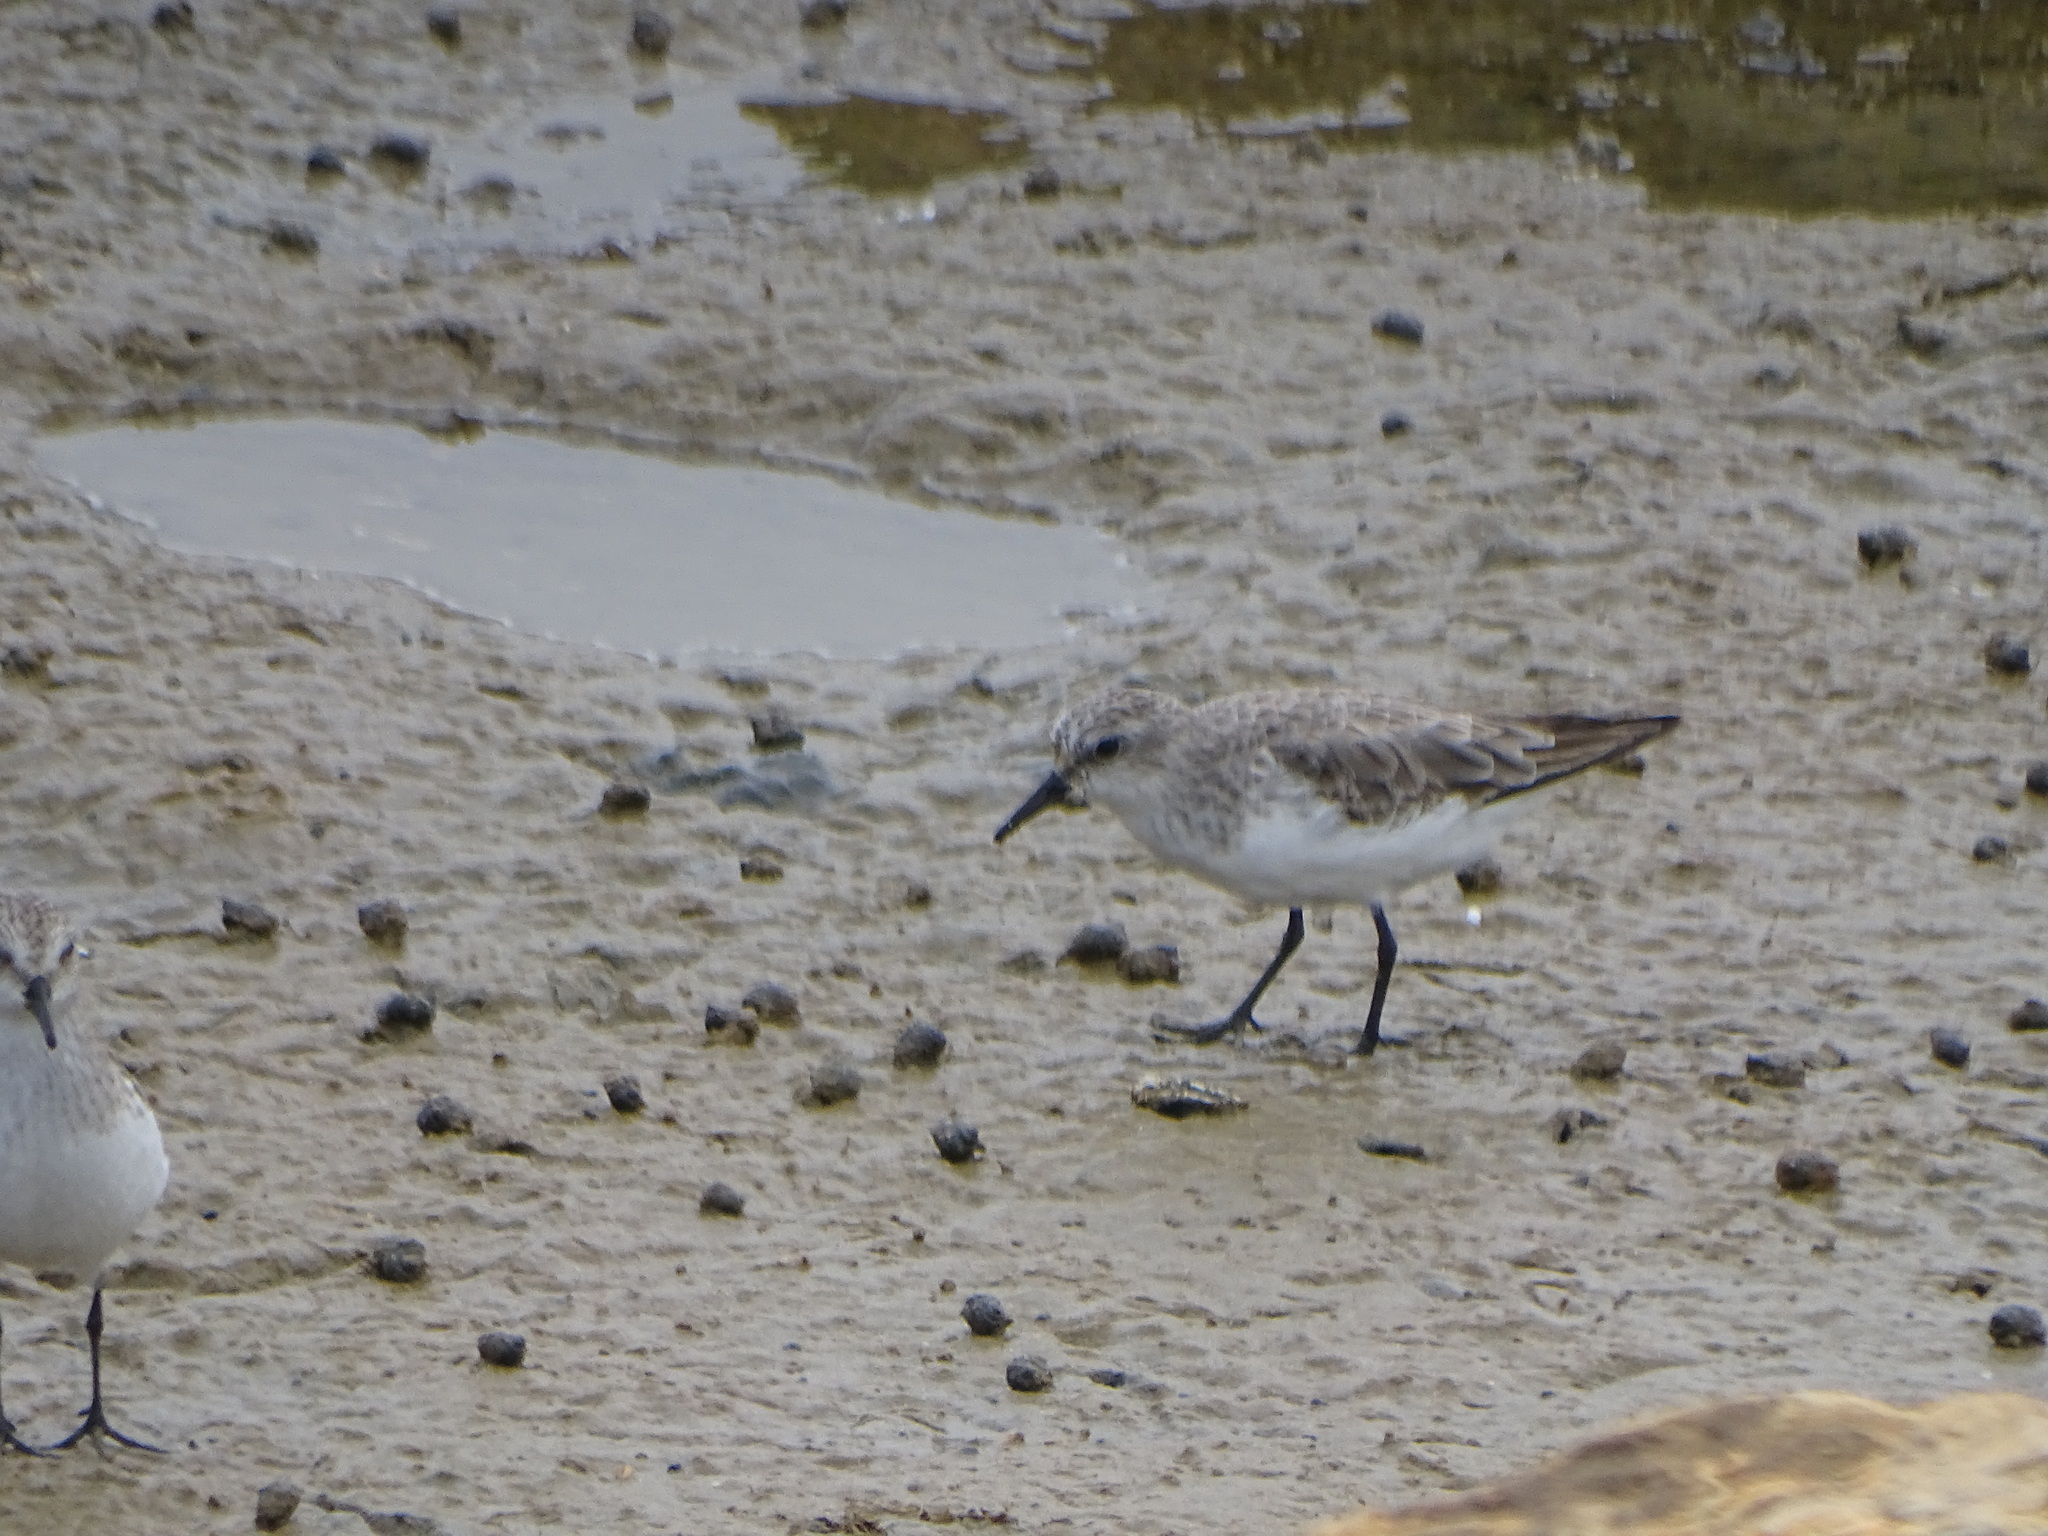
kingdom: Animalia
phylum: Chordata
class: Aves
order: Charadriiformes
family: Scolopacidae
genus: Calidris
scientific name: Calidris ruficollis
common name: Red-necked stint
